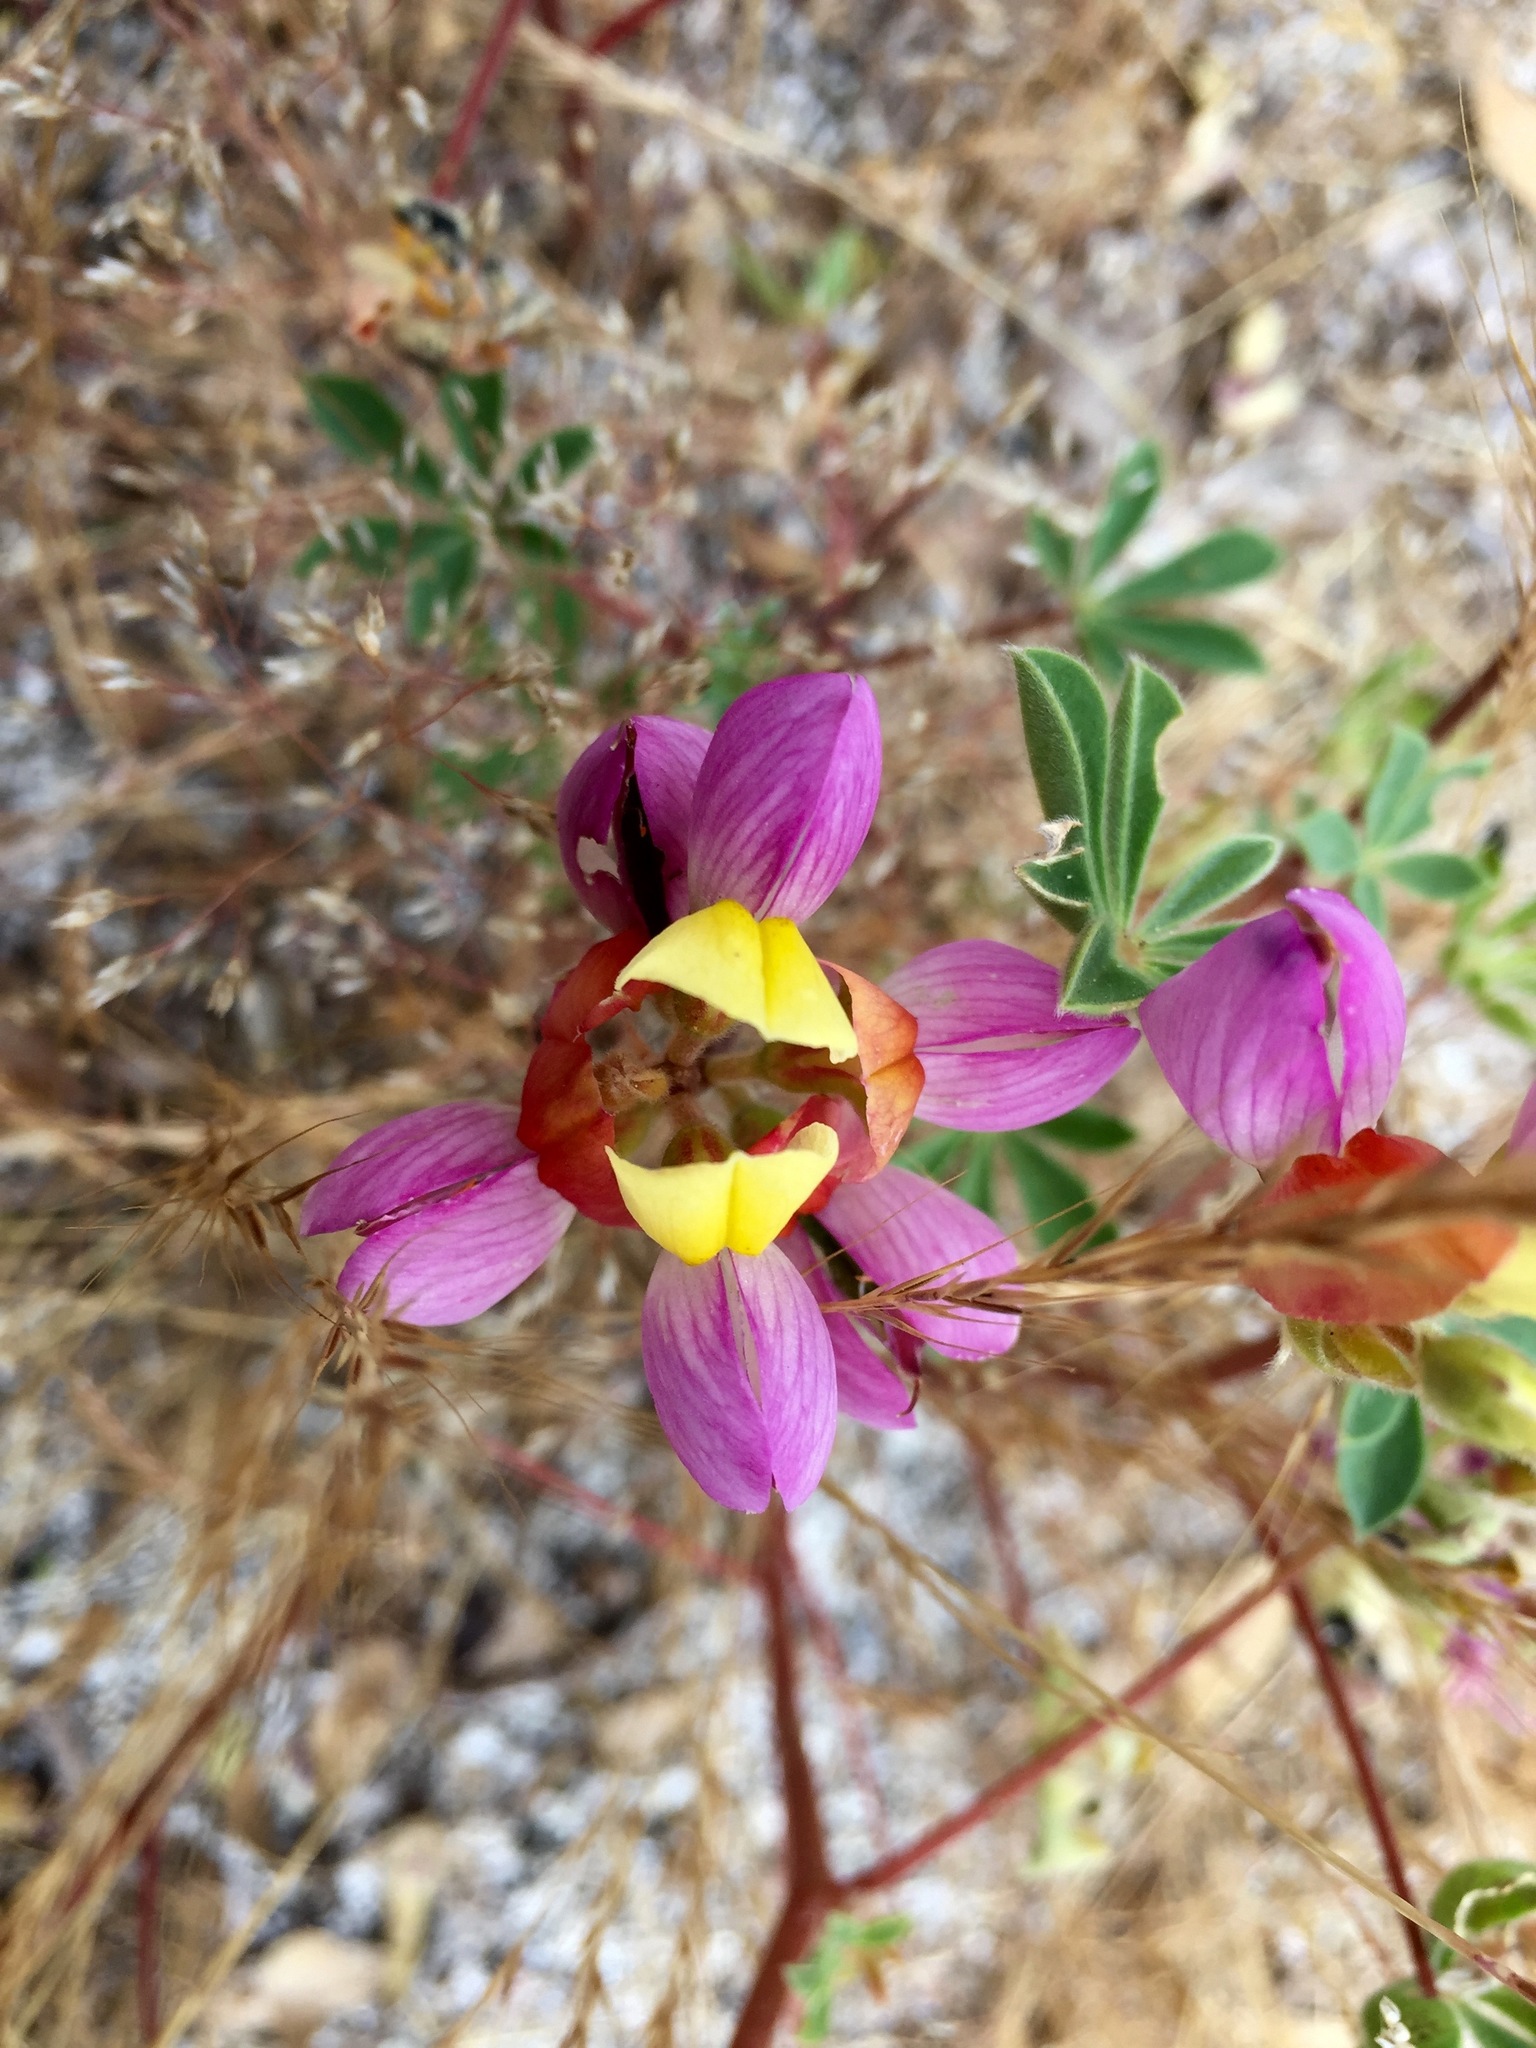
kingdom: Plantae
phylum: Tracheophyta
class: Magnoliopsida
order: Fabales
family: Fabaceae
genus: Lupinus
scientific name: Lupinus stiversii
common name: Harlequin lupine
